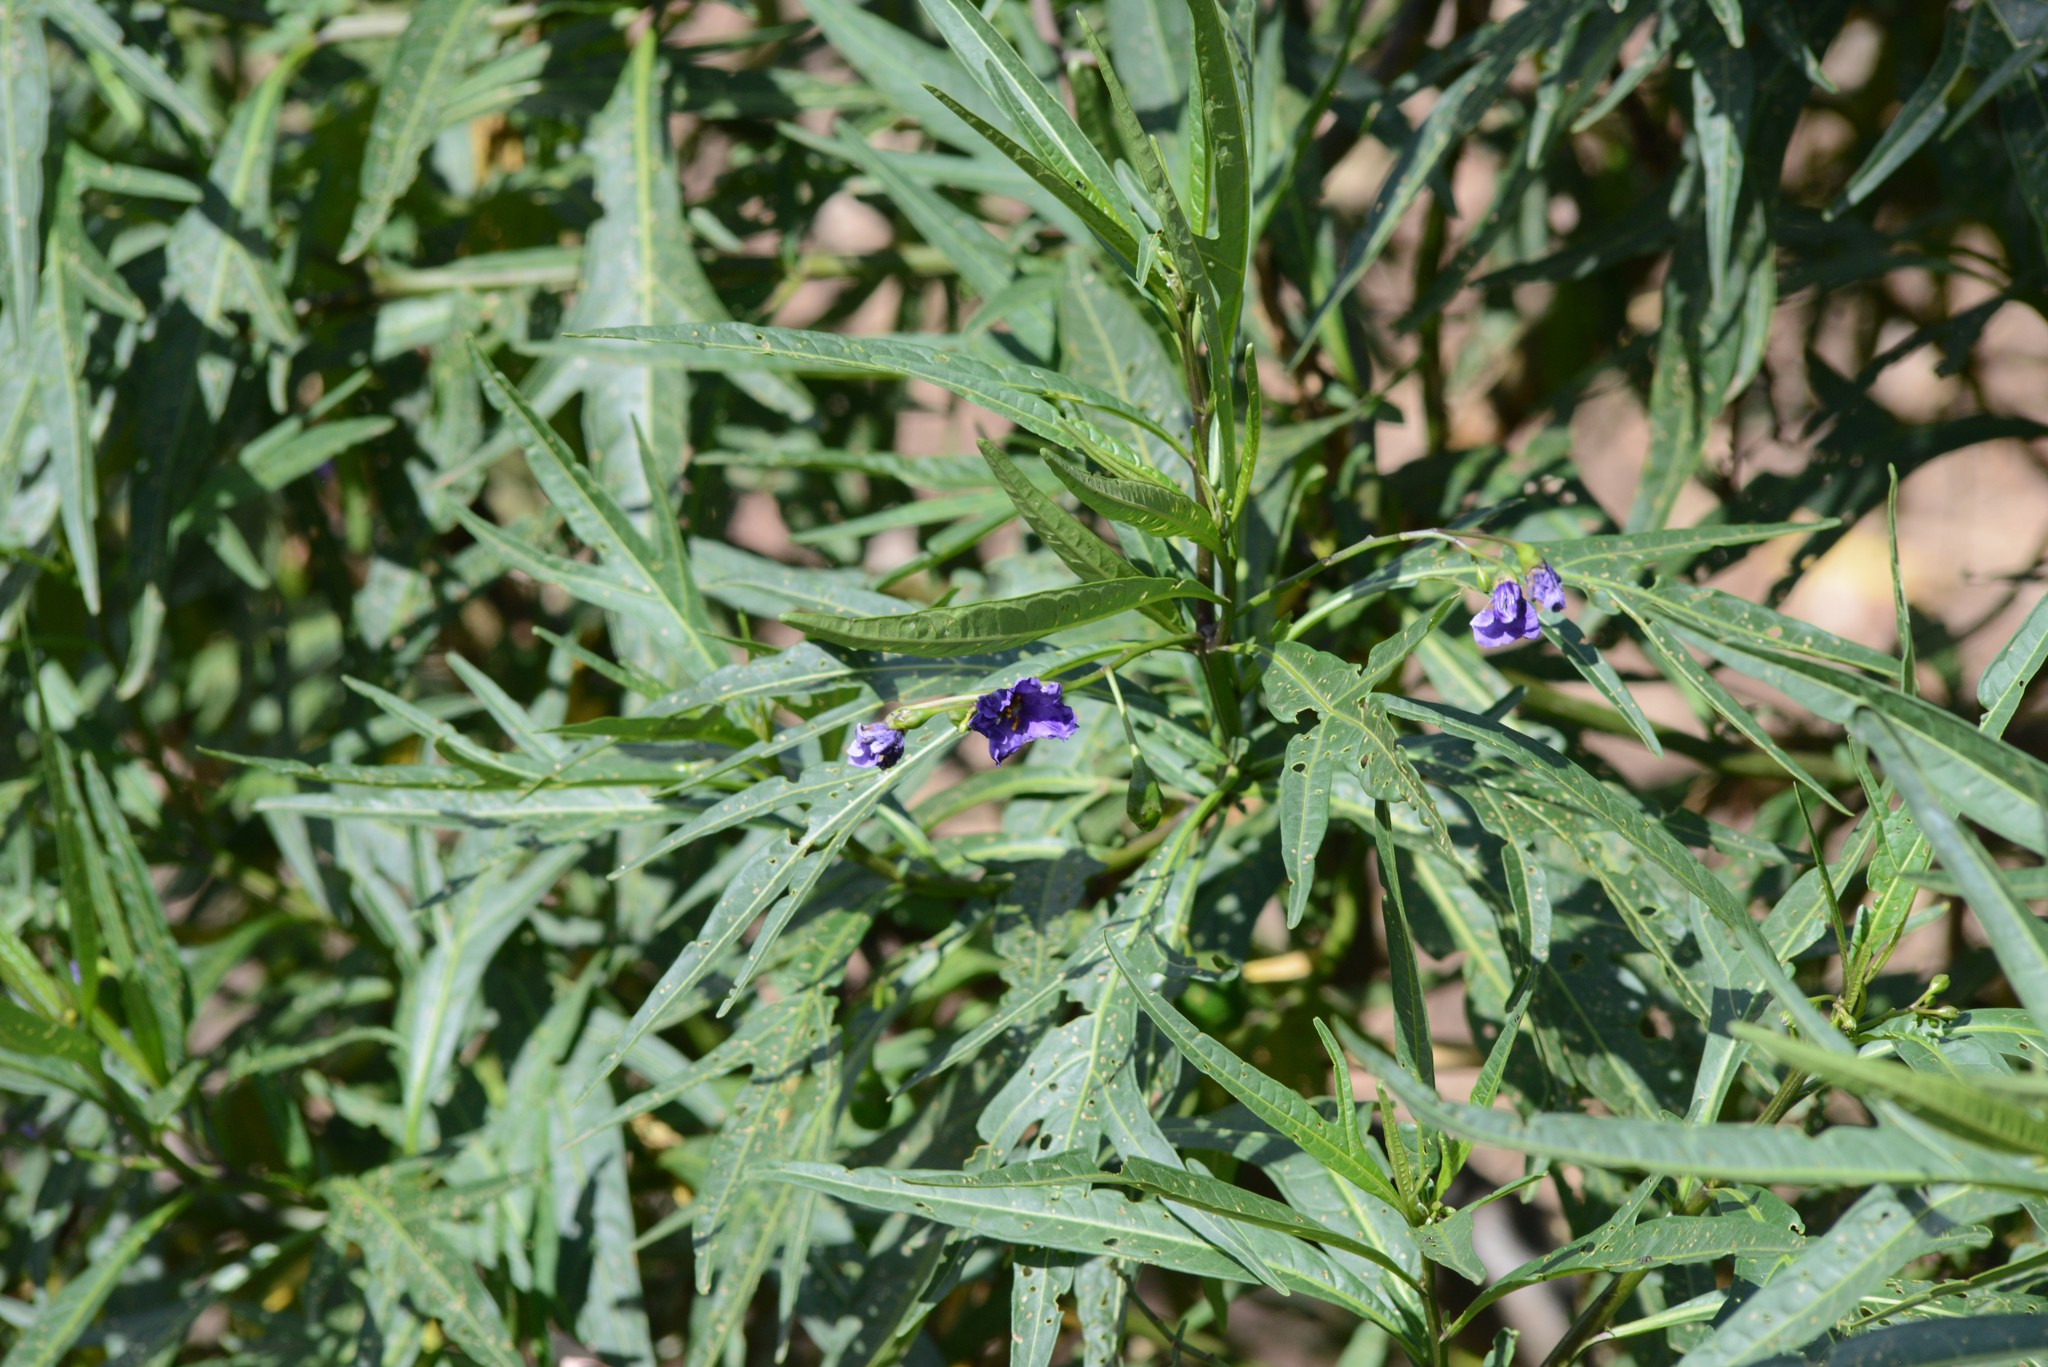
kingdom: Plantae
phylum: Tracheophyta
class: Magnoliopsida
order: Solanales
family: Solanaceae
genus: Solanum
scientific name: Solanum laciniatum
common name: Kangaroo-apple
